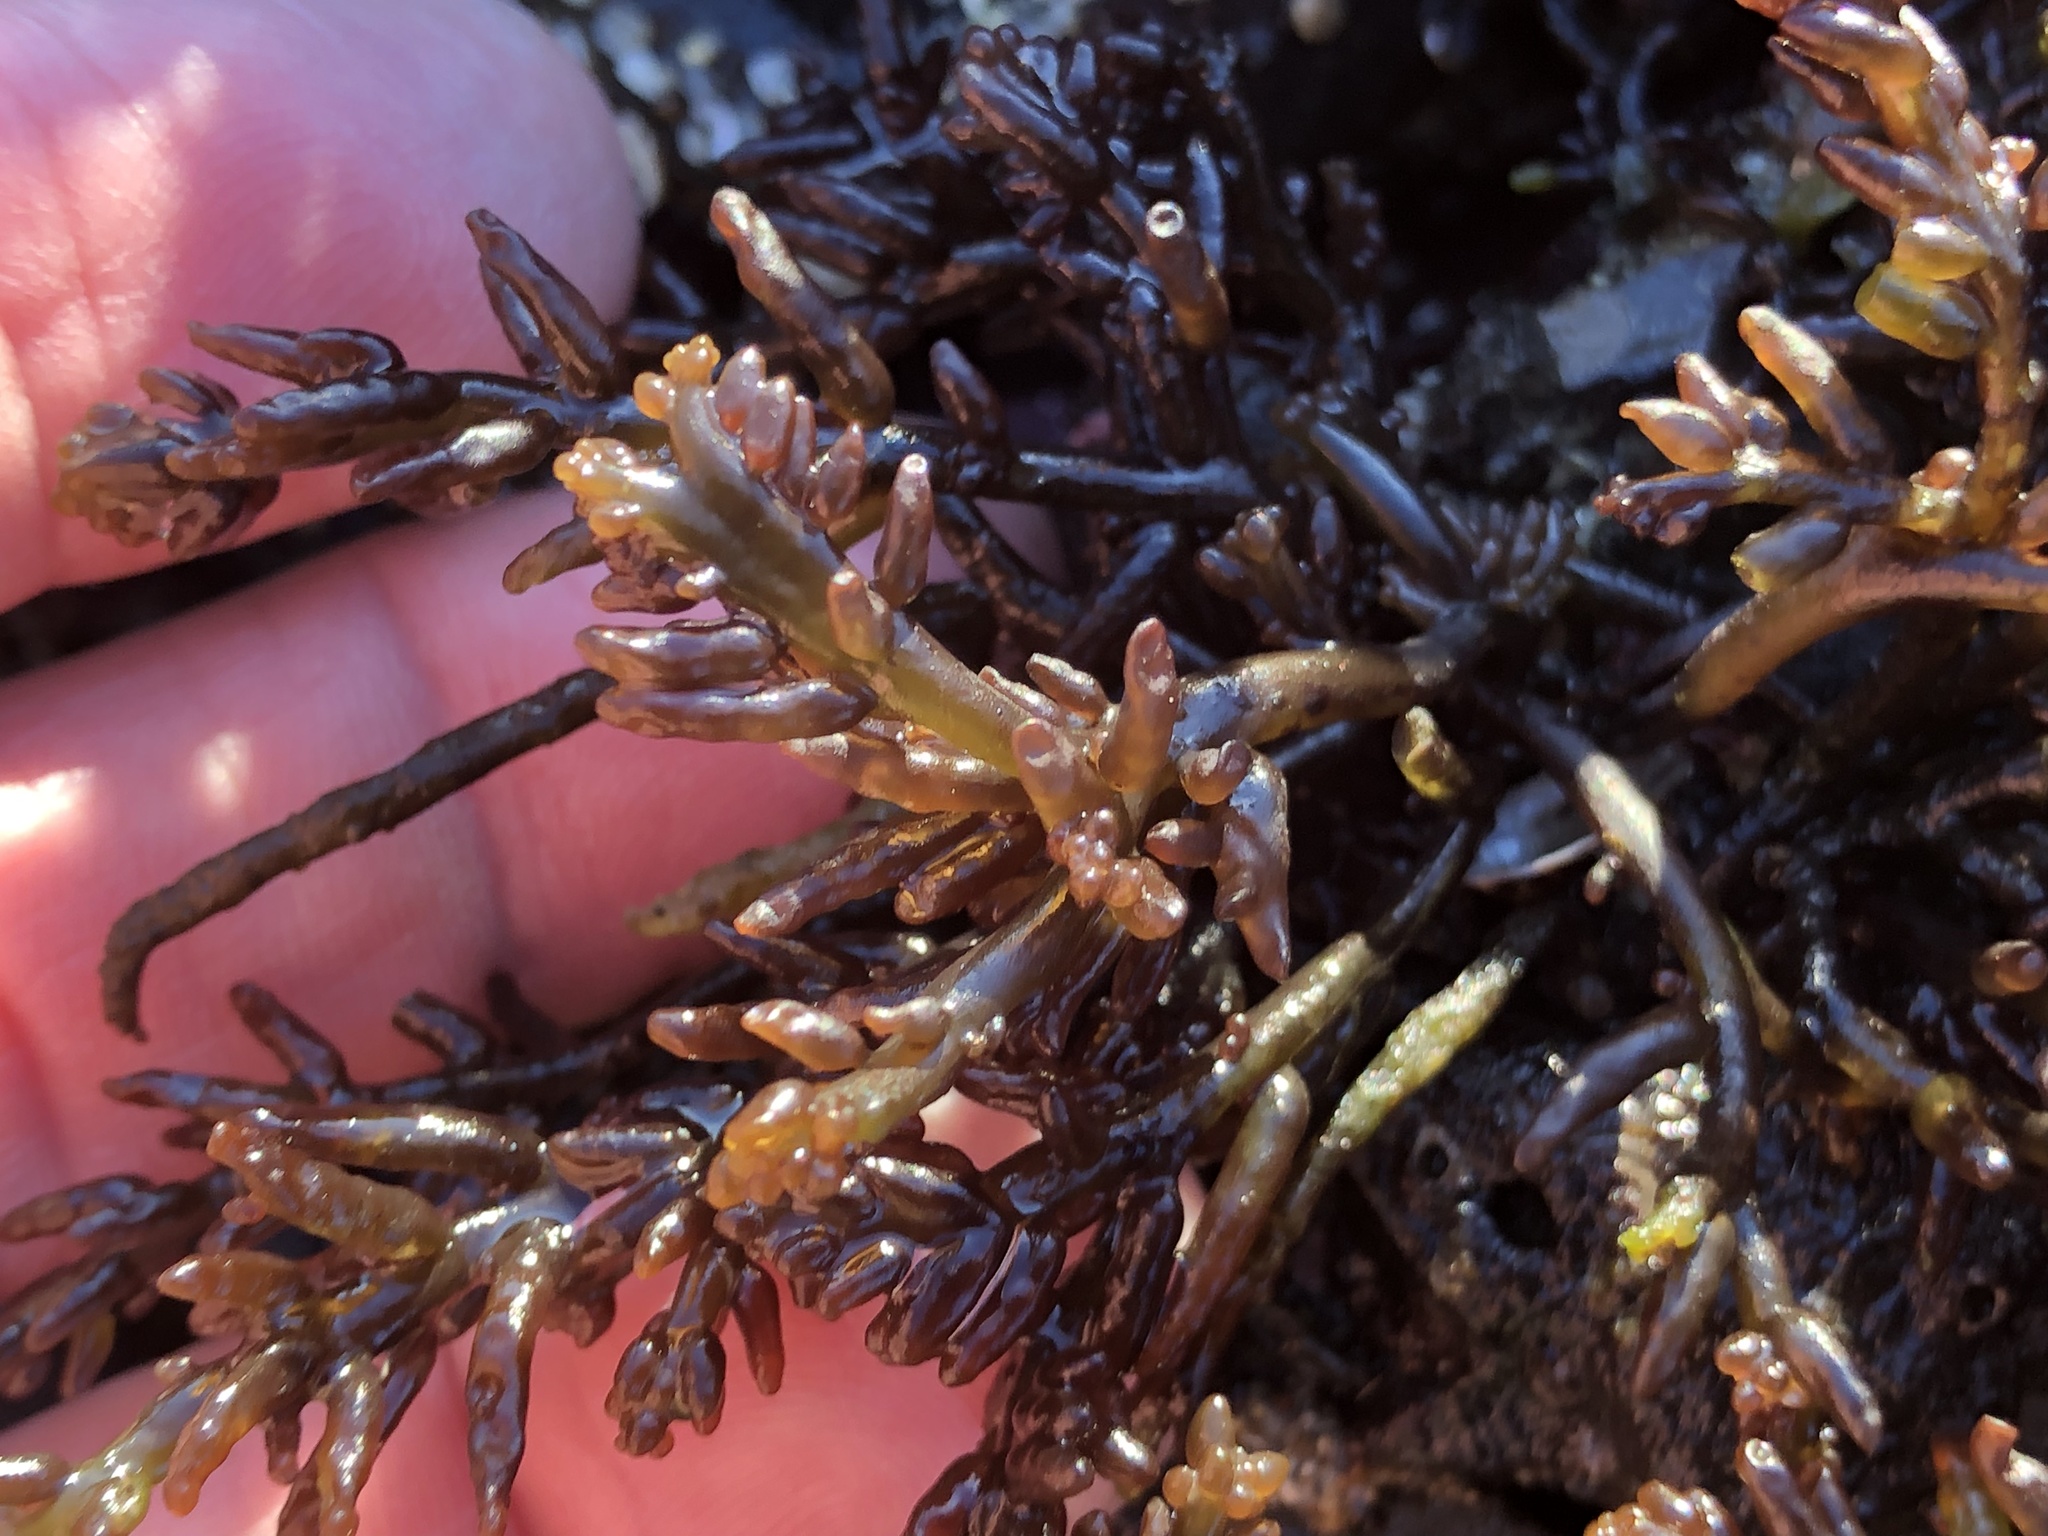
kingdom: Plantae
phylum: Rhodophyta
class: Florideophyceae
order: Rhodymeniales
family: Champiaceae
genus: Neogastroclonium
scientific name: Neogastroclonium subarticulatum
